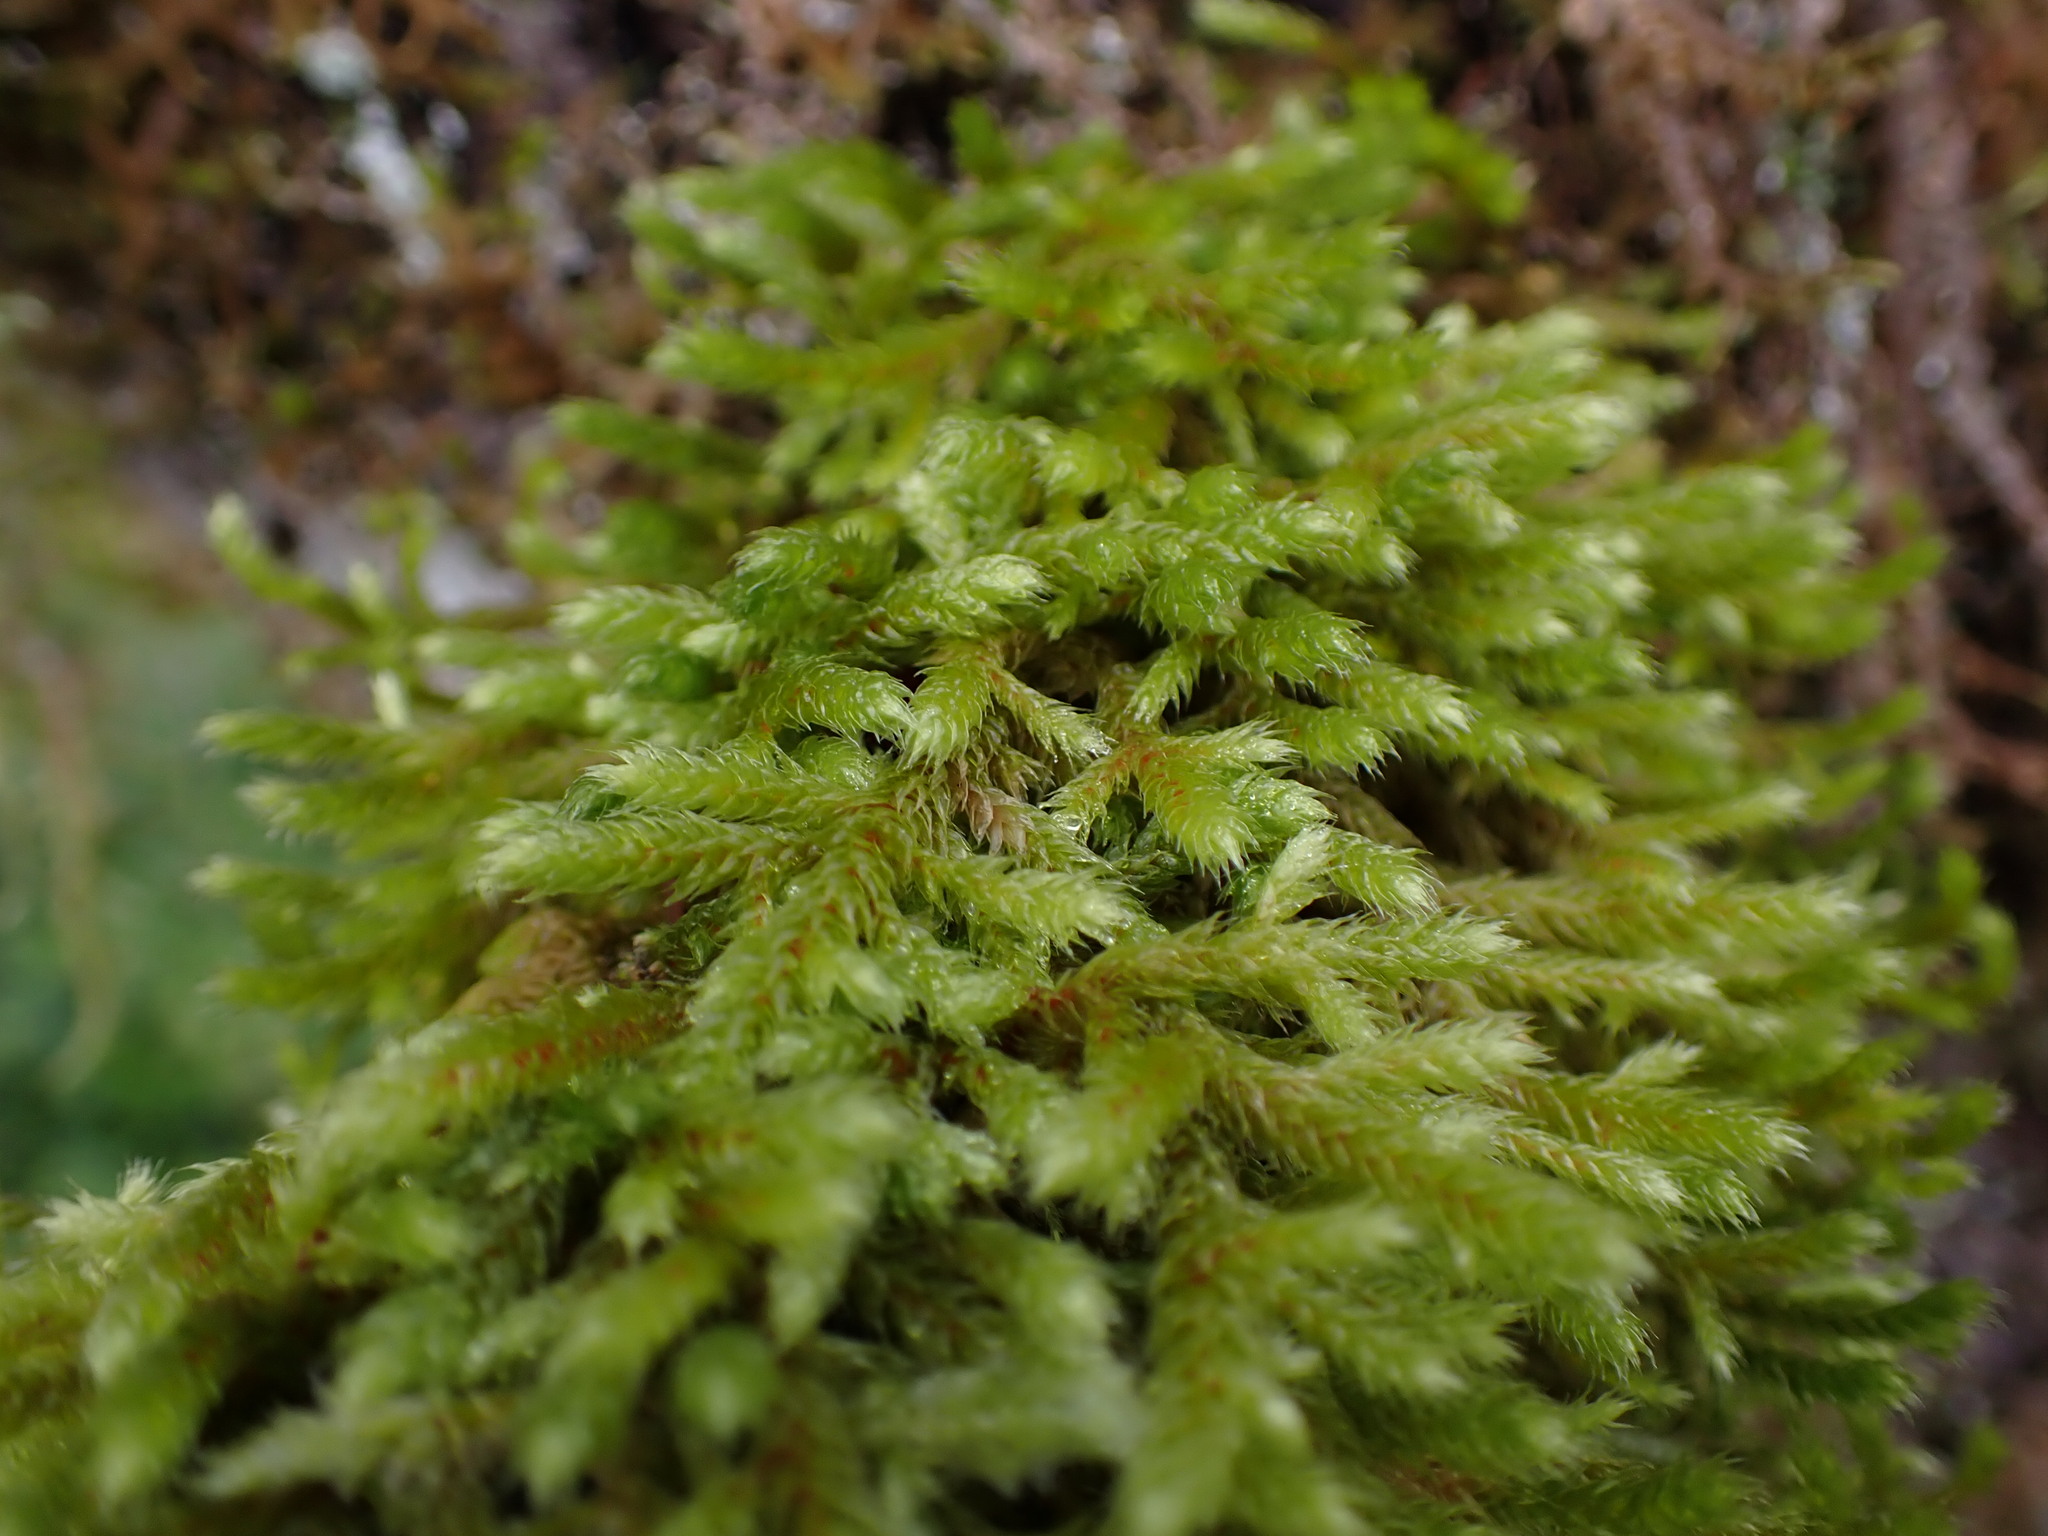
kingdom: Plantae
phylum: Bryophyta
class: Bryopsida
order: Hypnales
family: Antitrichiaceae
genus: Antitrichia
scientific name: Antitrichia curtipendula
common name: Pendulous wing-moss
